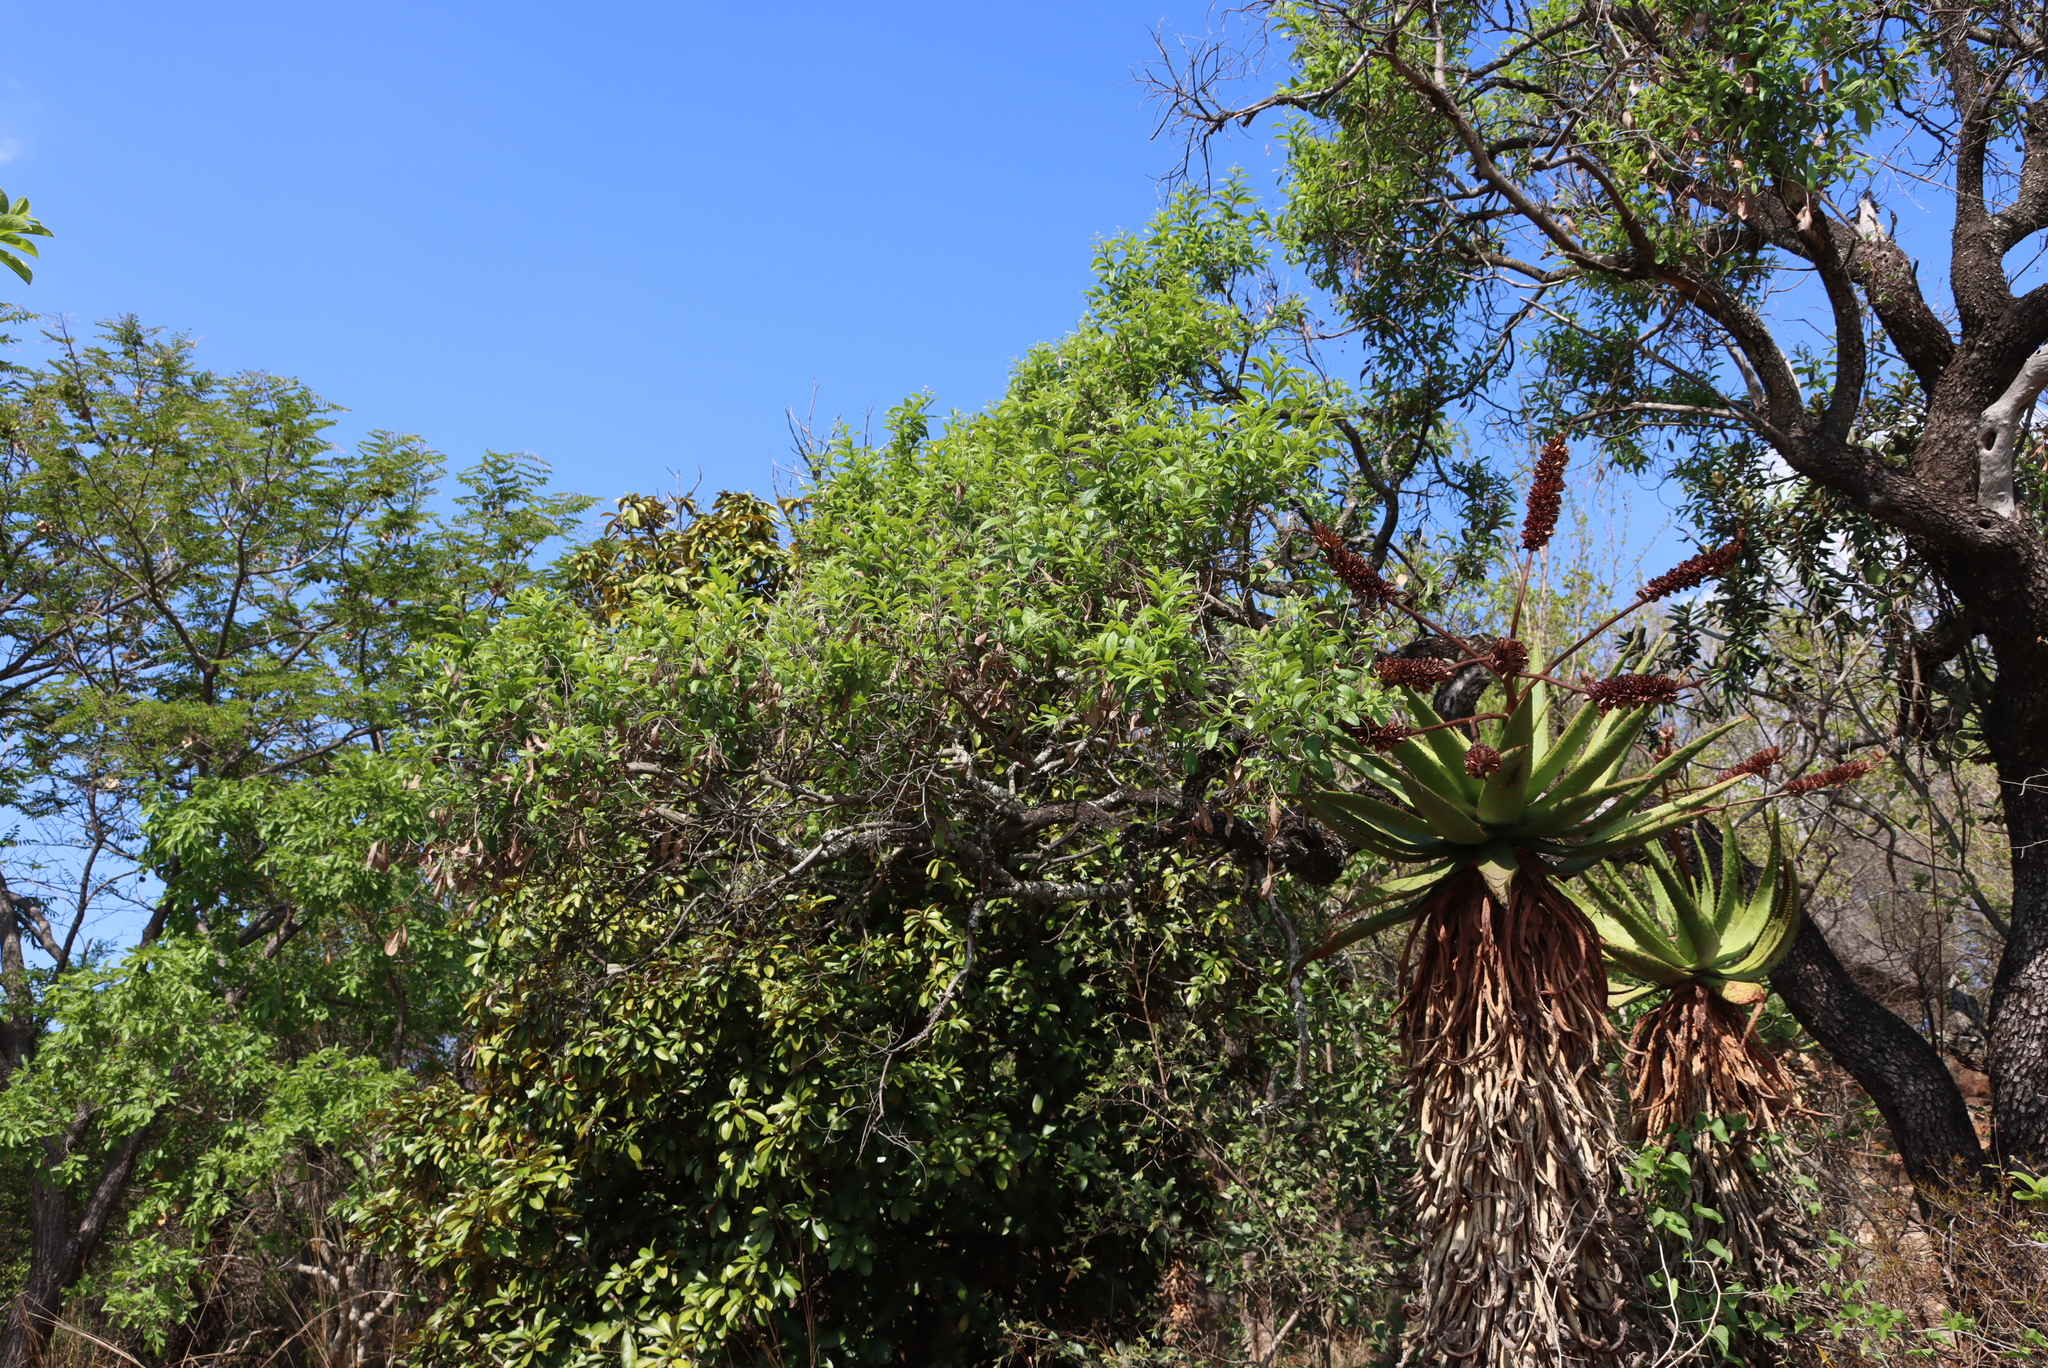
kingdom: Plantae
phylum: Tracheophyta
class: Magnoliopsida
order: Sapindales
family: Anacardiaceae
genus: Ozoroa
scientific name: Ozoroa paniculosa
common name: Bushveld ozoroa
